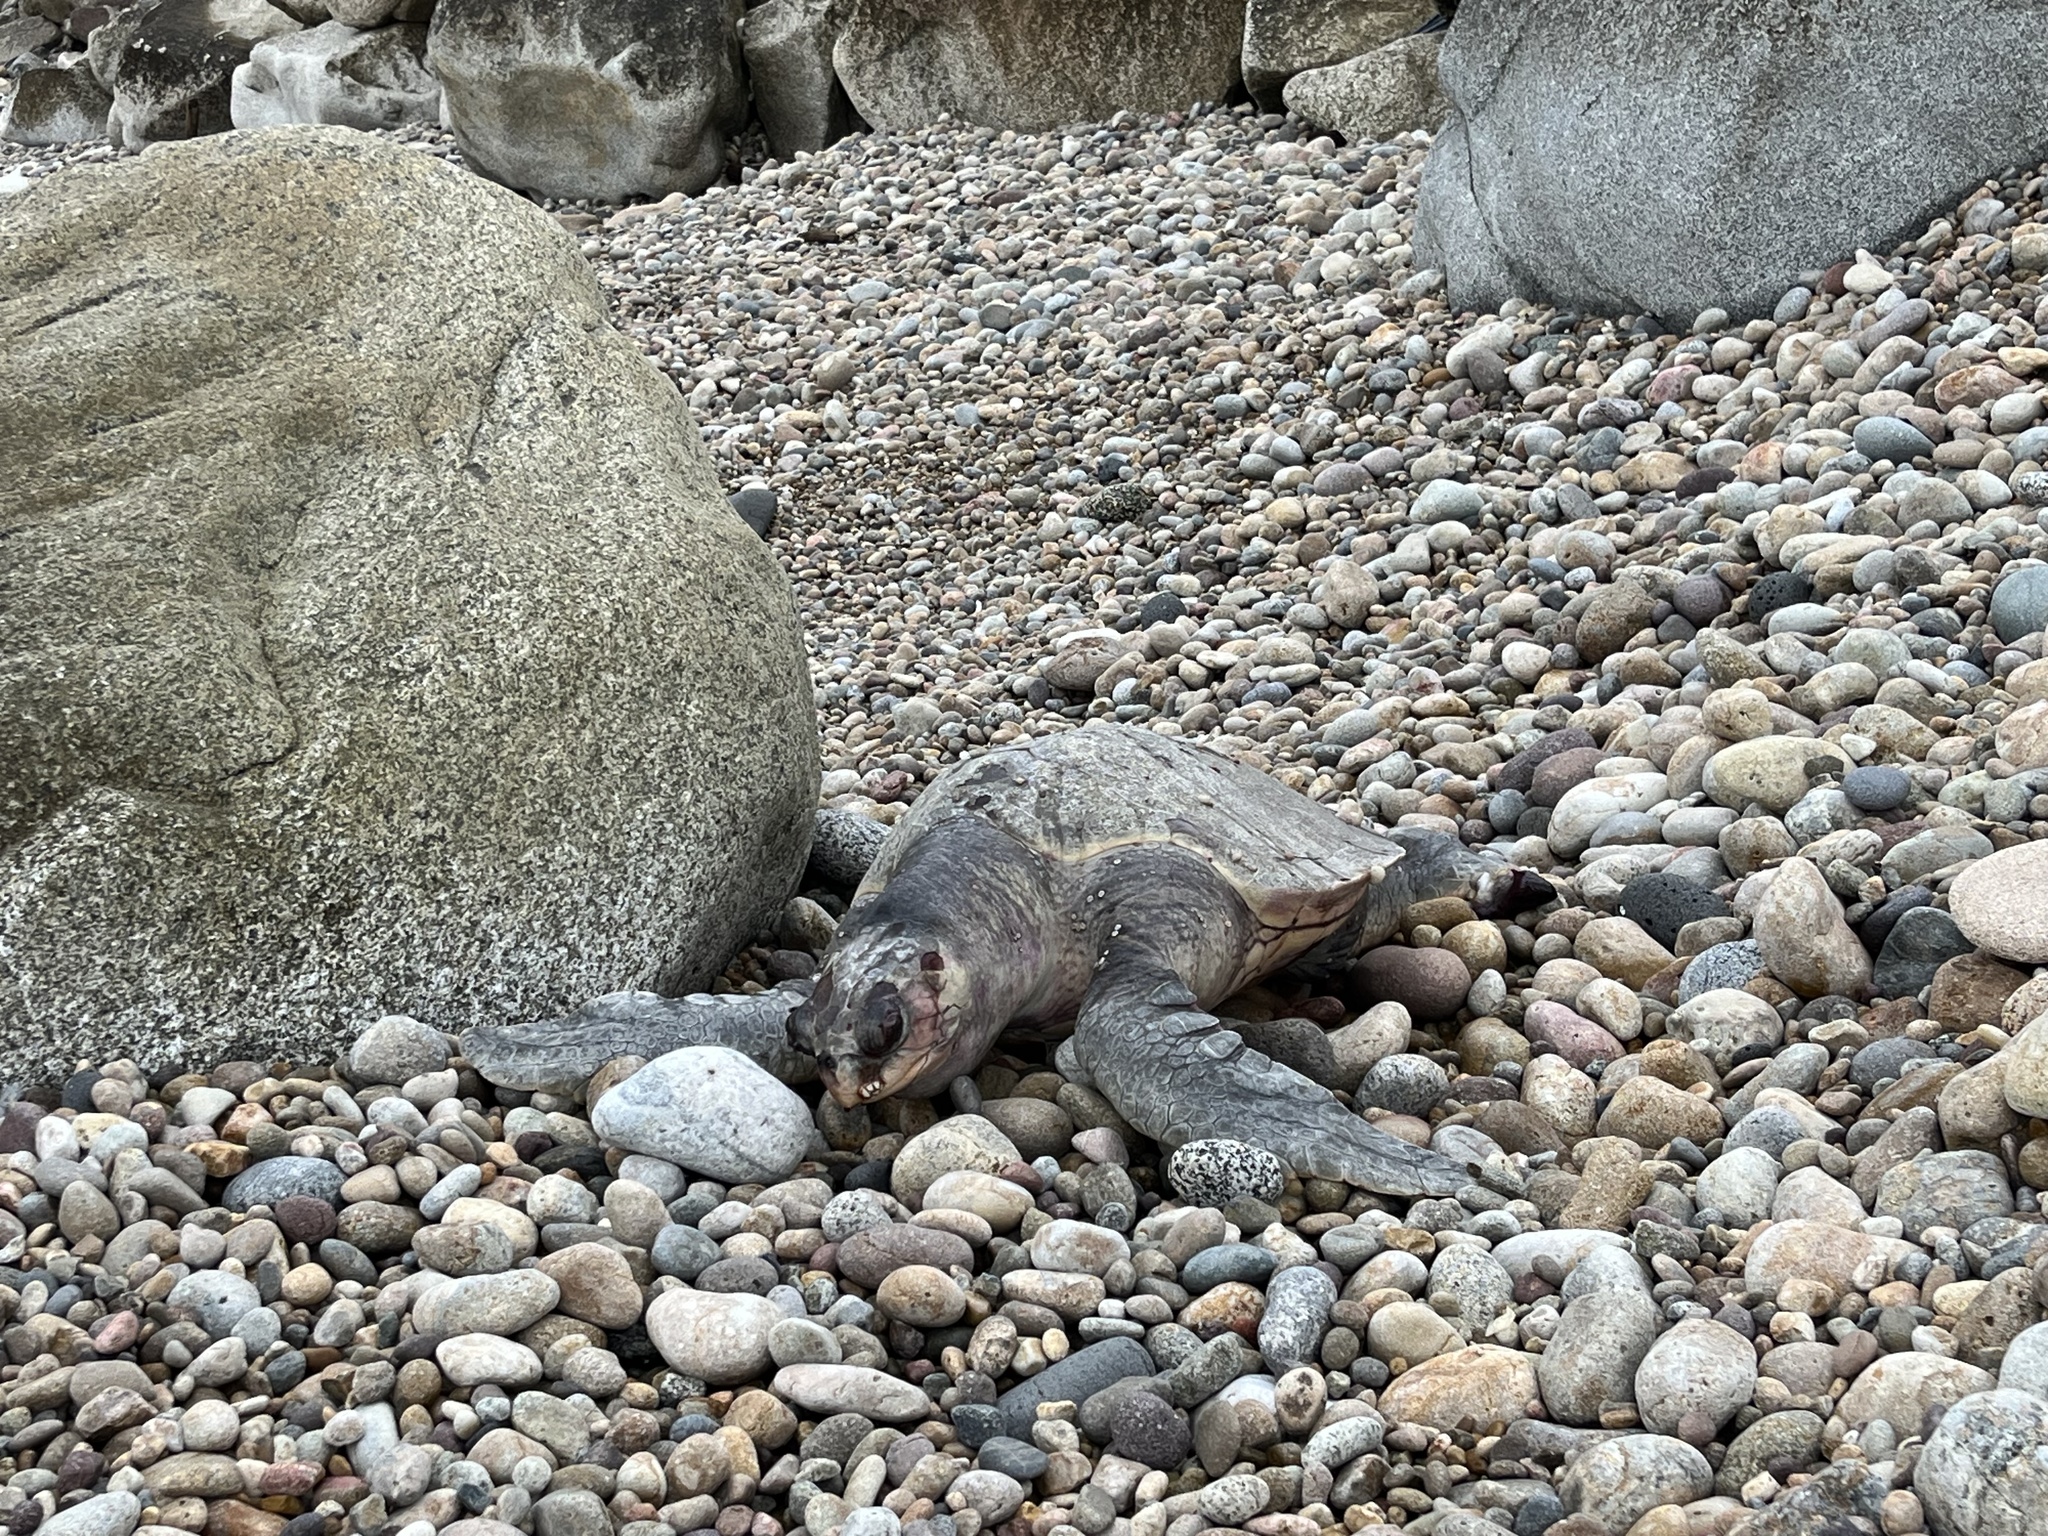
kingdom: Animalia
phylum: Chordata
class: Testudines
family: Cheloniidae
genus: Lepidochelys
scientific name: Lepidochelys olivacea
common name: Olive ridley
